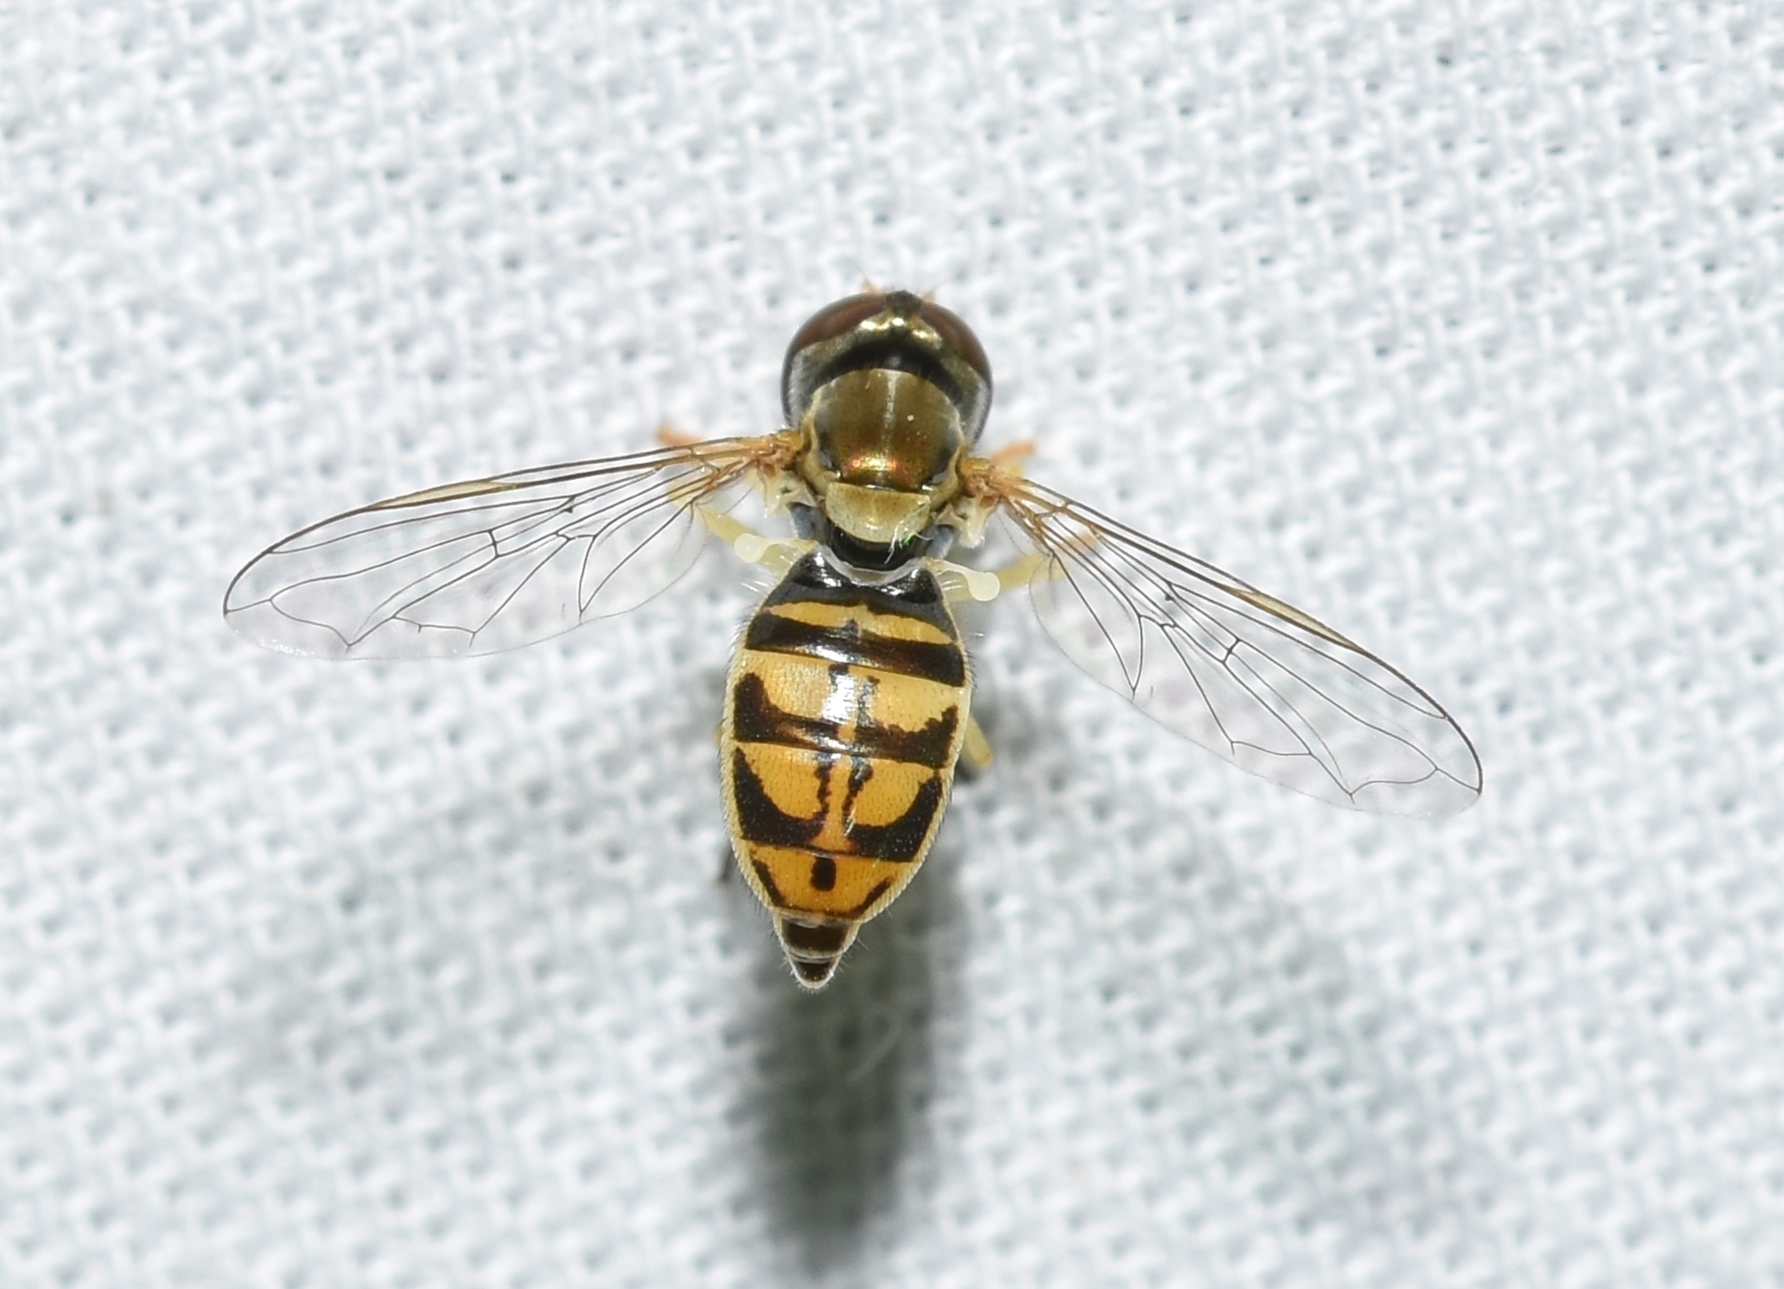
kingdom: Animalia
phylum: Arthropoda
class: Insecta
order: Diptera
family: Syrphidae
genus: Toxomerus
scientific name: Toxomerus marginatus
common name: Syrphid fly
